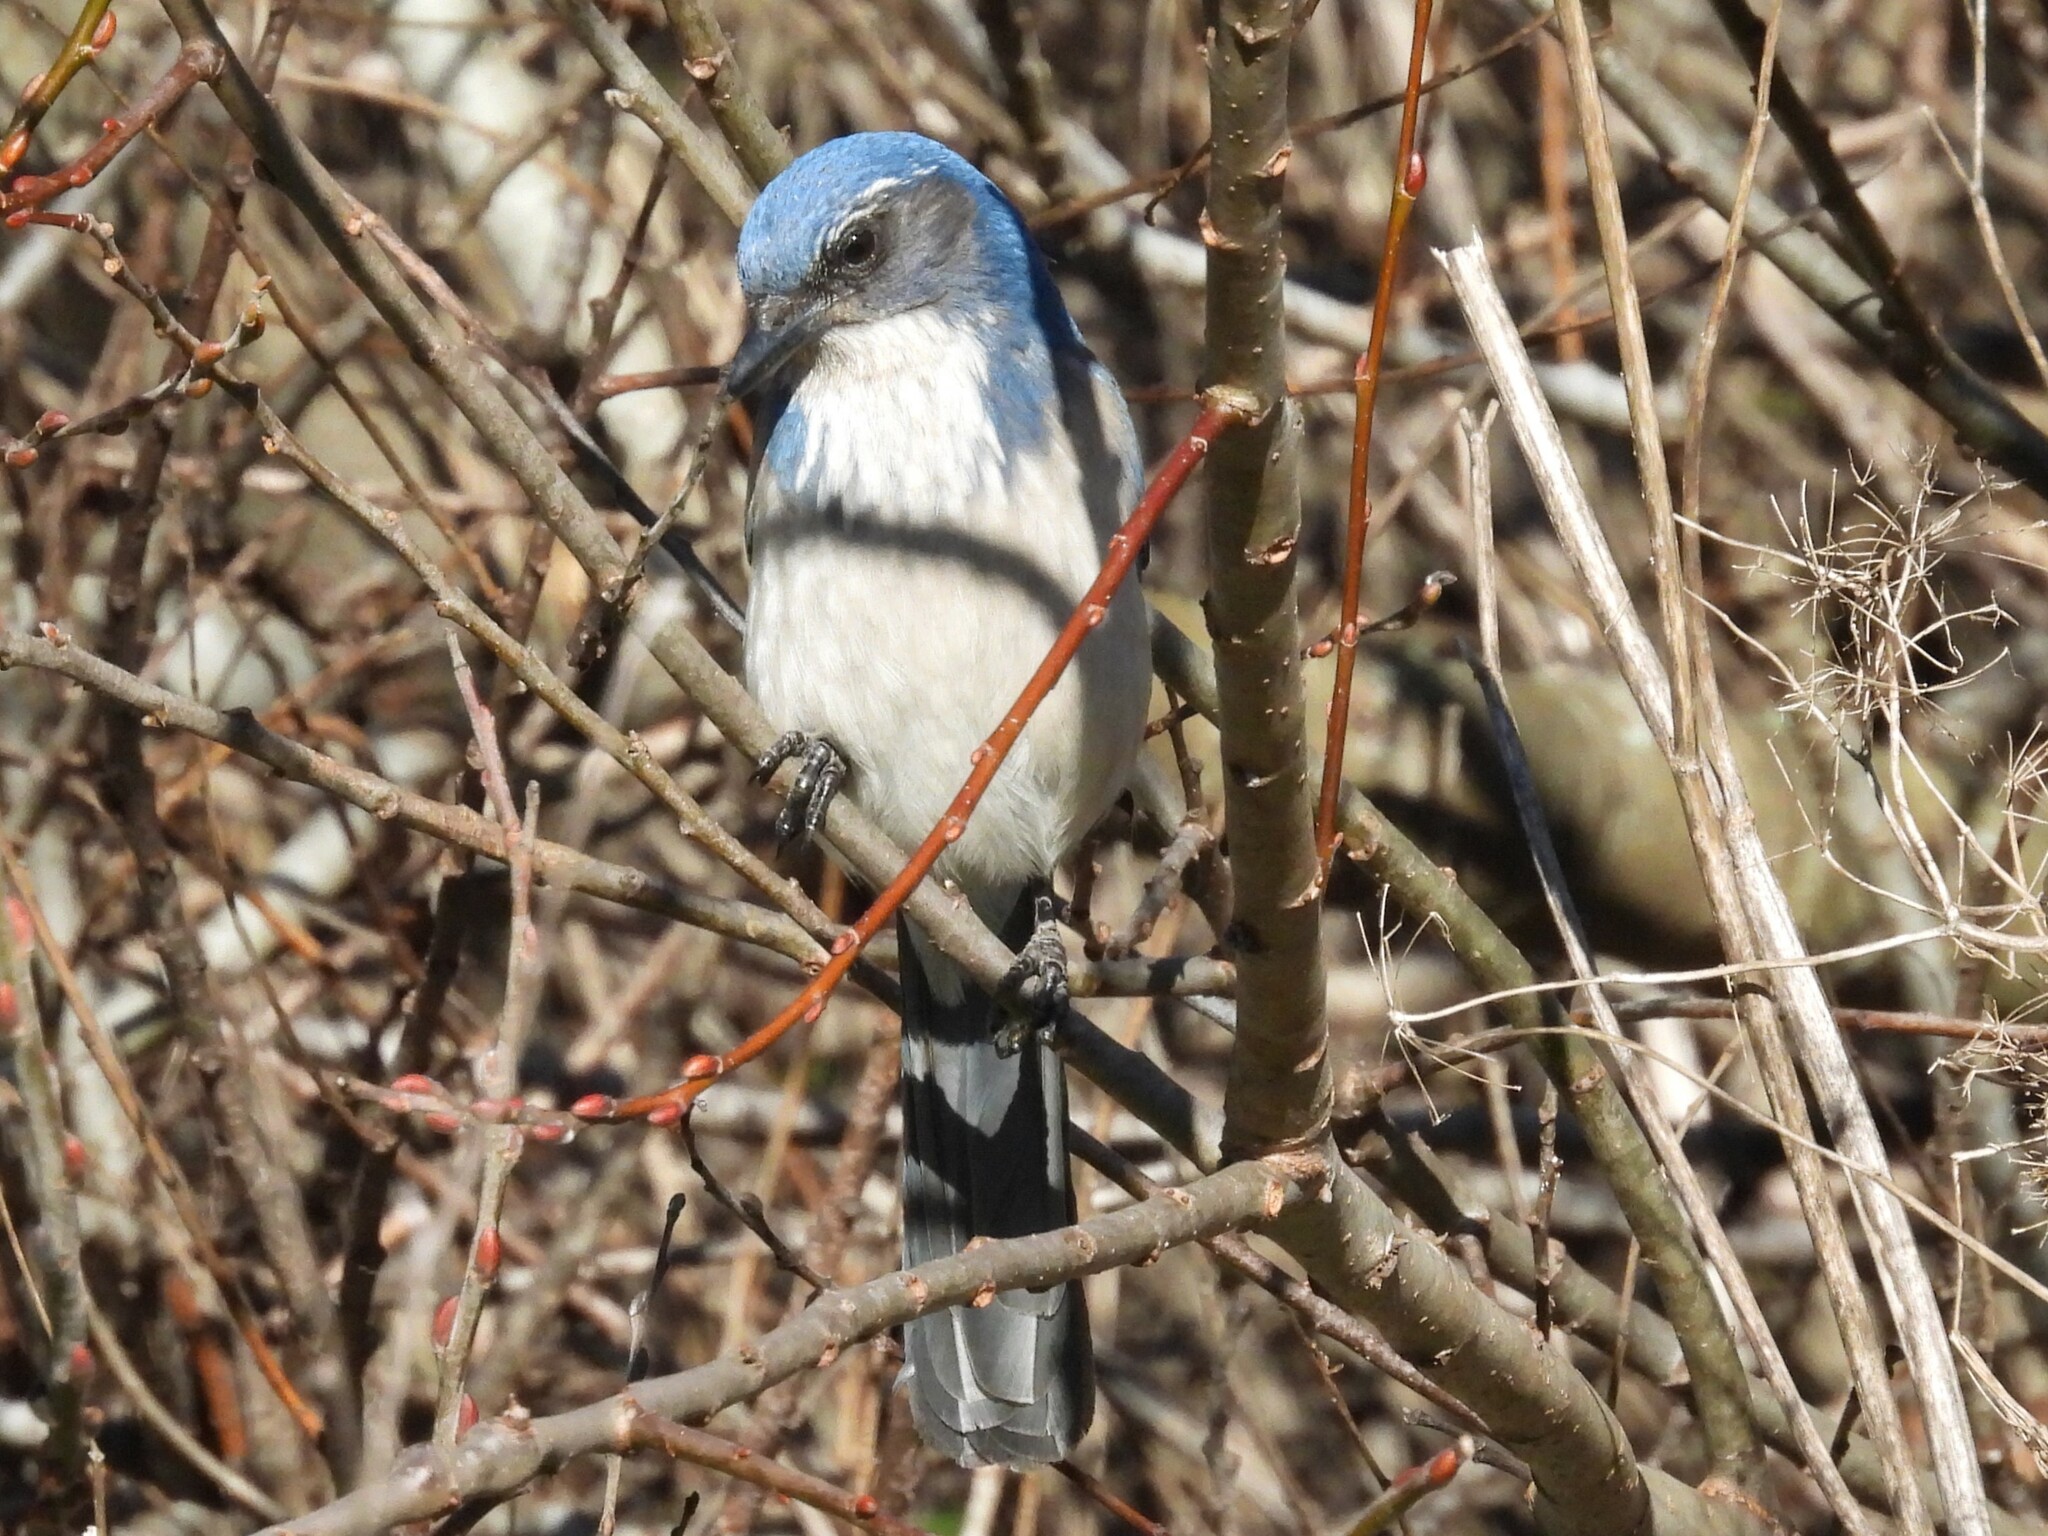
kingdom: Animalia
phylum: Chordata
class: Aves
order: Passeriformes
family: Corvidae
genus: Aphelocoma
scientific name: Aphelocoma californica
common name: California scrub-jay
